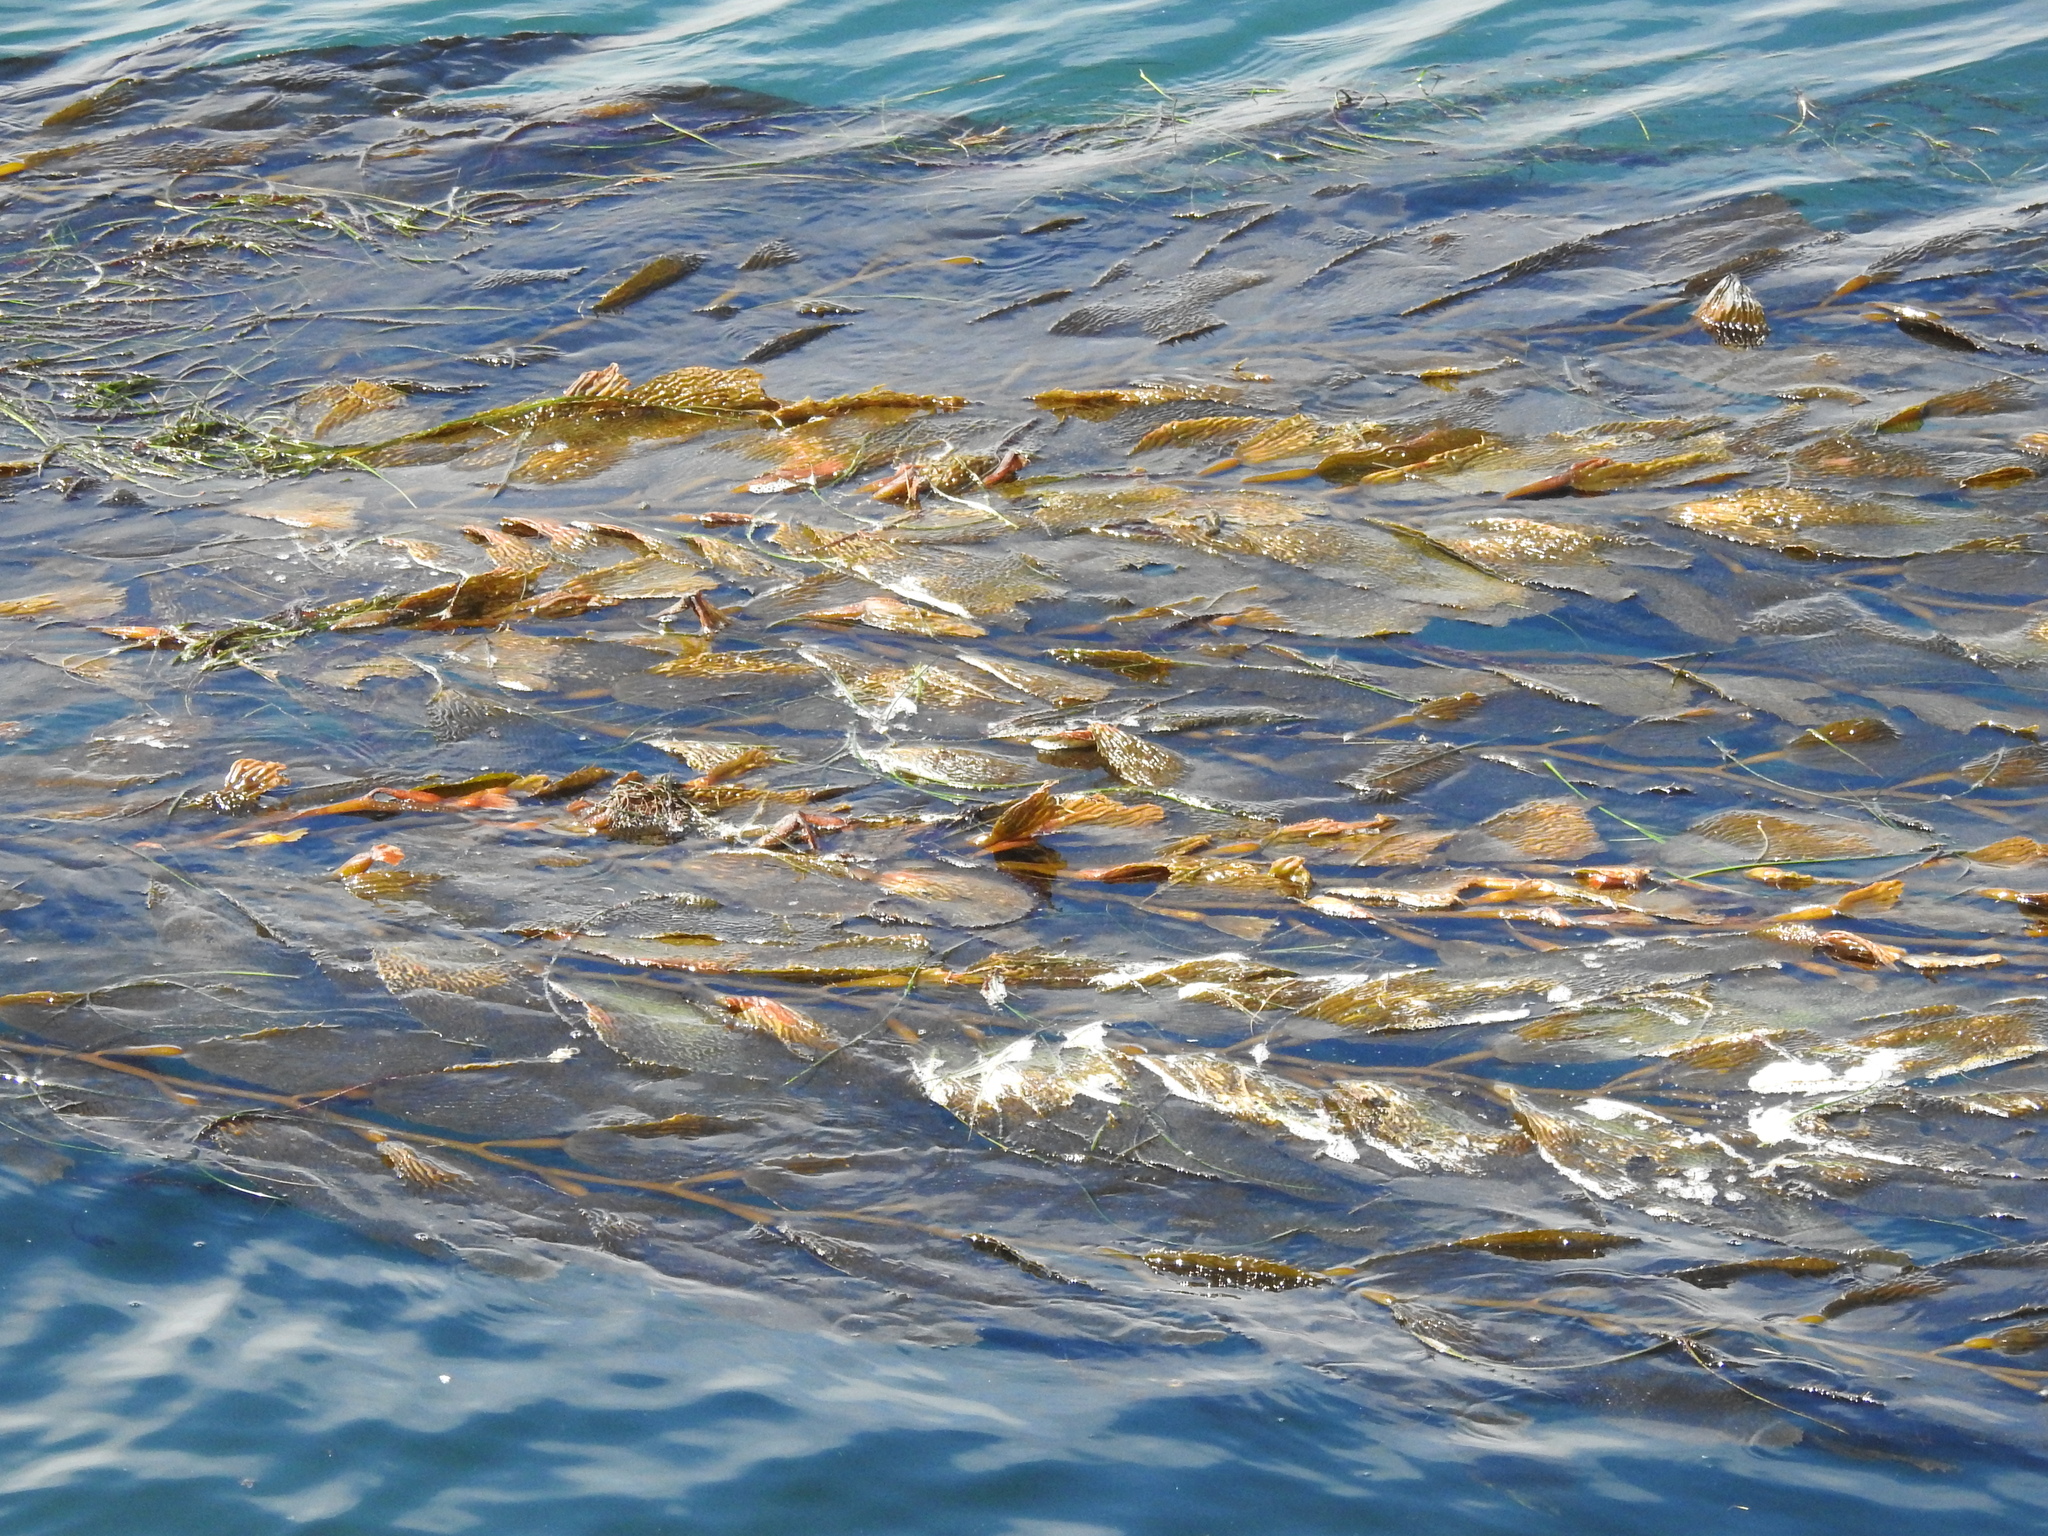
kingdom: Chromista
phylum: Ochrophyta
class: Phaeophyceae
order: Laminariales
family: Laminariaceae
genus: Macrocystis
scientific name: Macrocystis pyrifera
